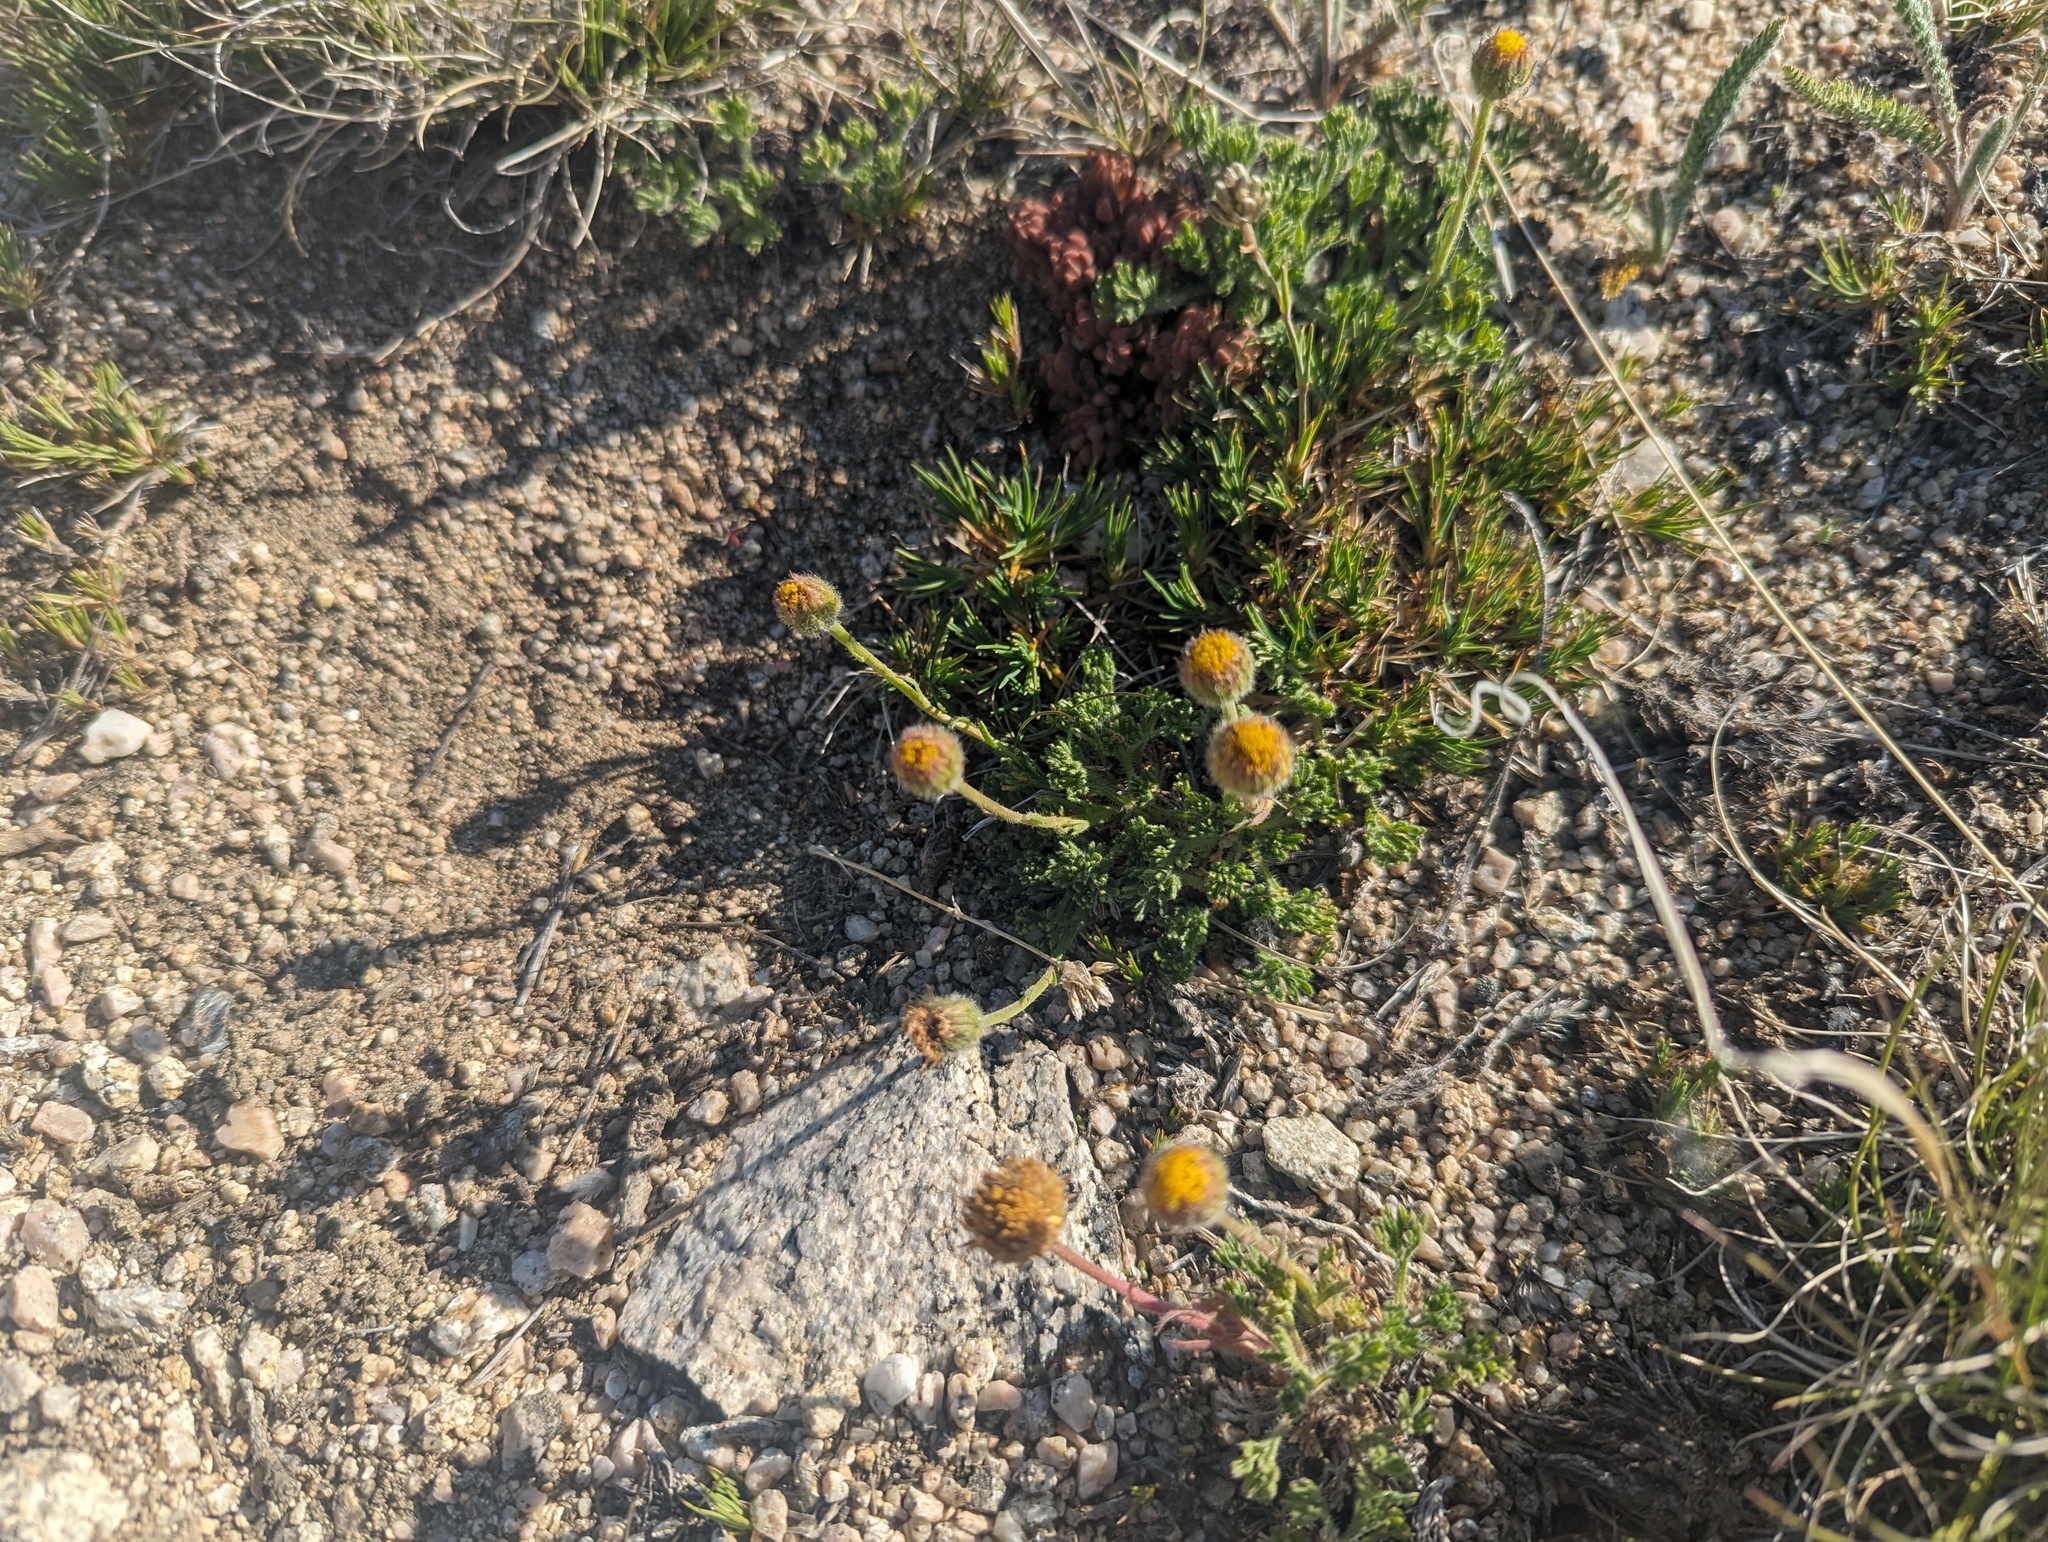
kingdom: Plantae
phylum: Tracheophyta
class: Magnoliopsida
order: Asterales
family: Asteraceae
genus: Erigeron
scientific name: Erigeron compositus
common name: Dwarf mountain fleabane
